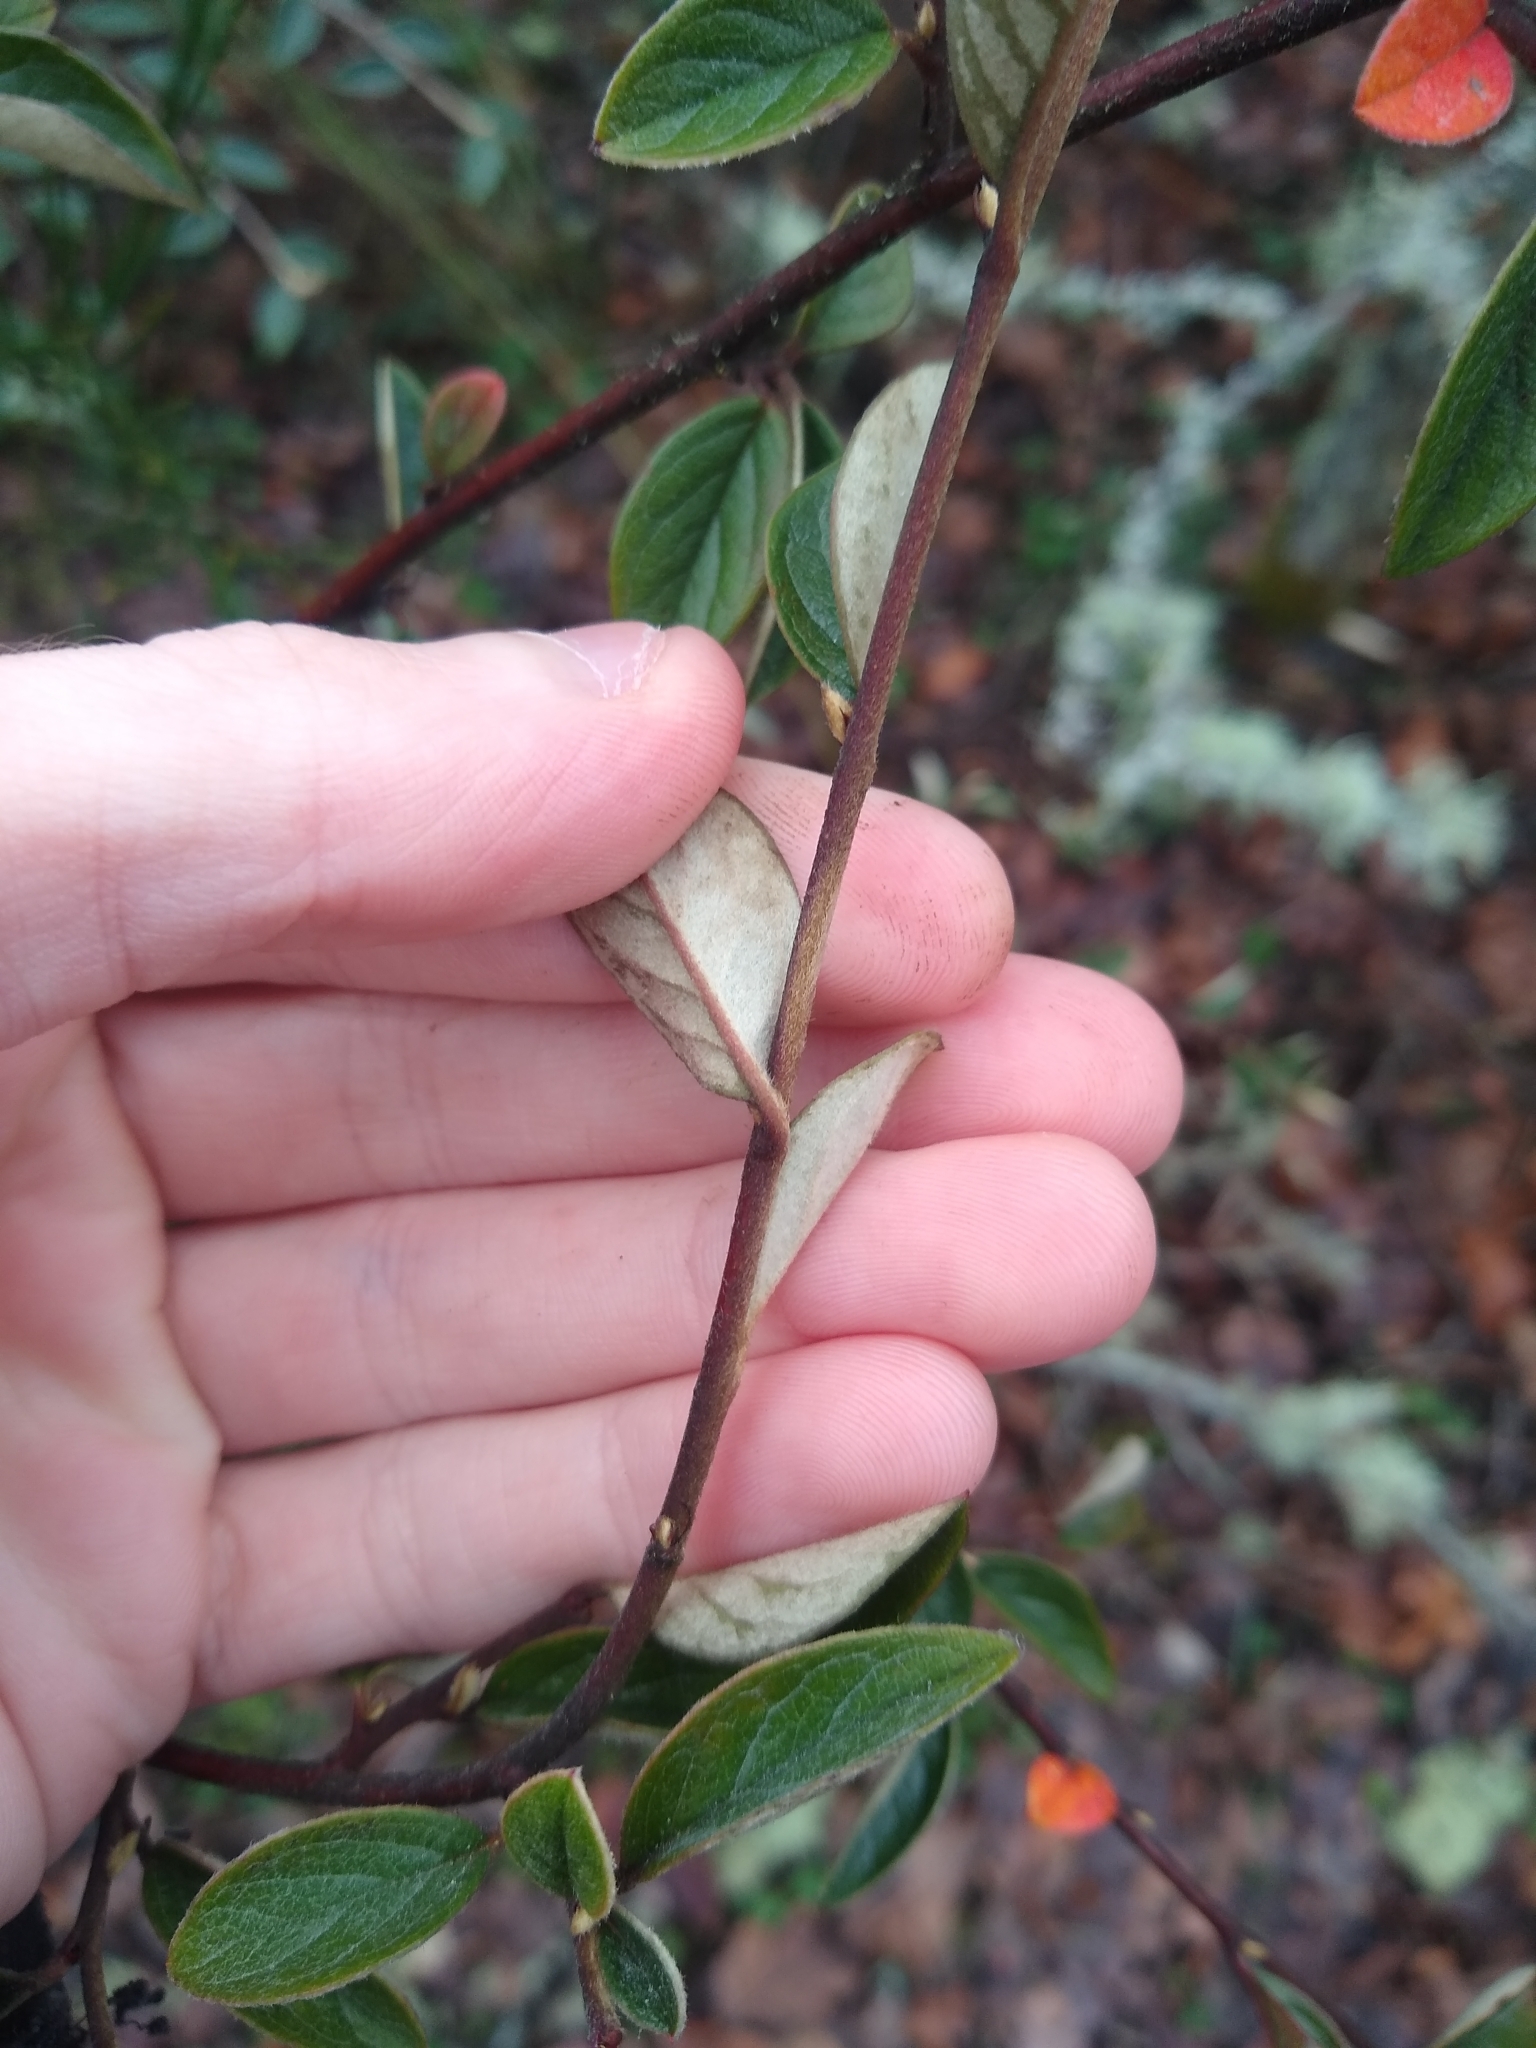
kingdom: Plantae
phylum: Tracheophyta
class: Magnoliopsida
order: Rosales
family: Rosaceae
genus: Cotoneaster
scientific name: Cotoneaster franchetii
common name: Franchet's cotoneaster
